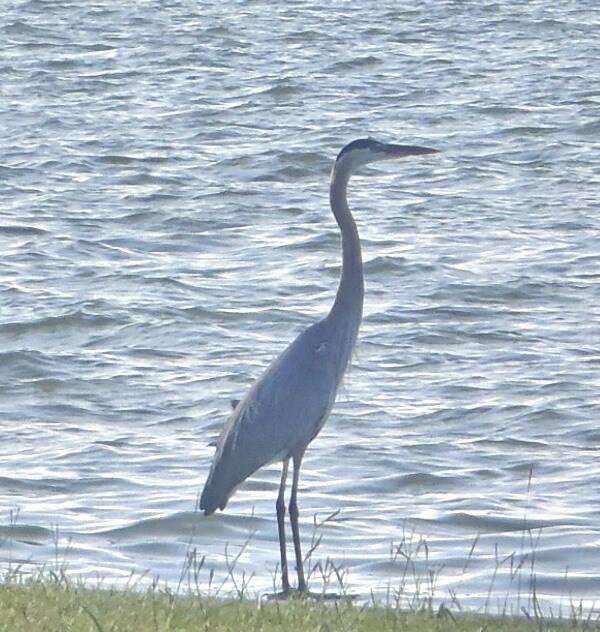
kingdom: Animalia
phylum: Chordata
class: Aves
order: Pelecaniformes
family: Ardeidae
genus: Ardea
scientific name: Ardea herodias
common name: Great blue heron
